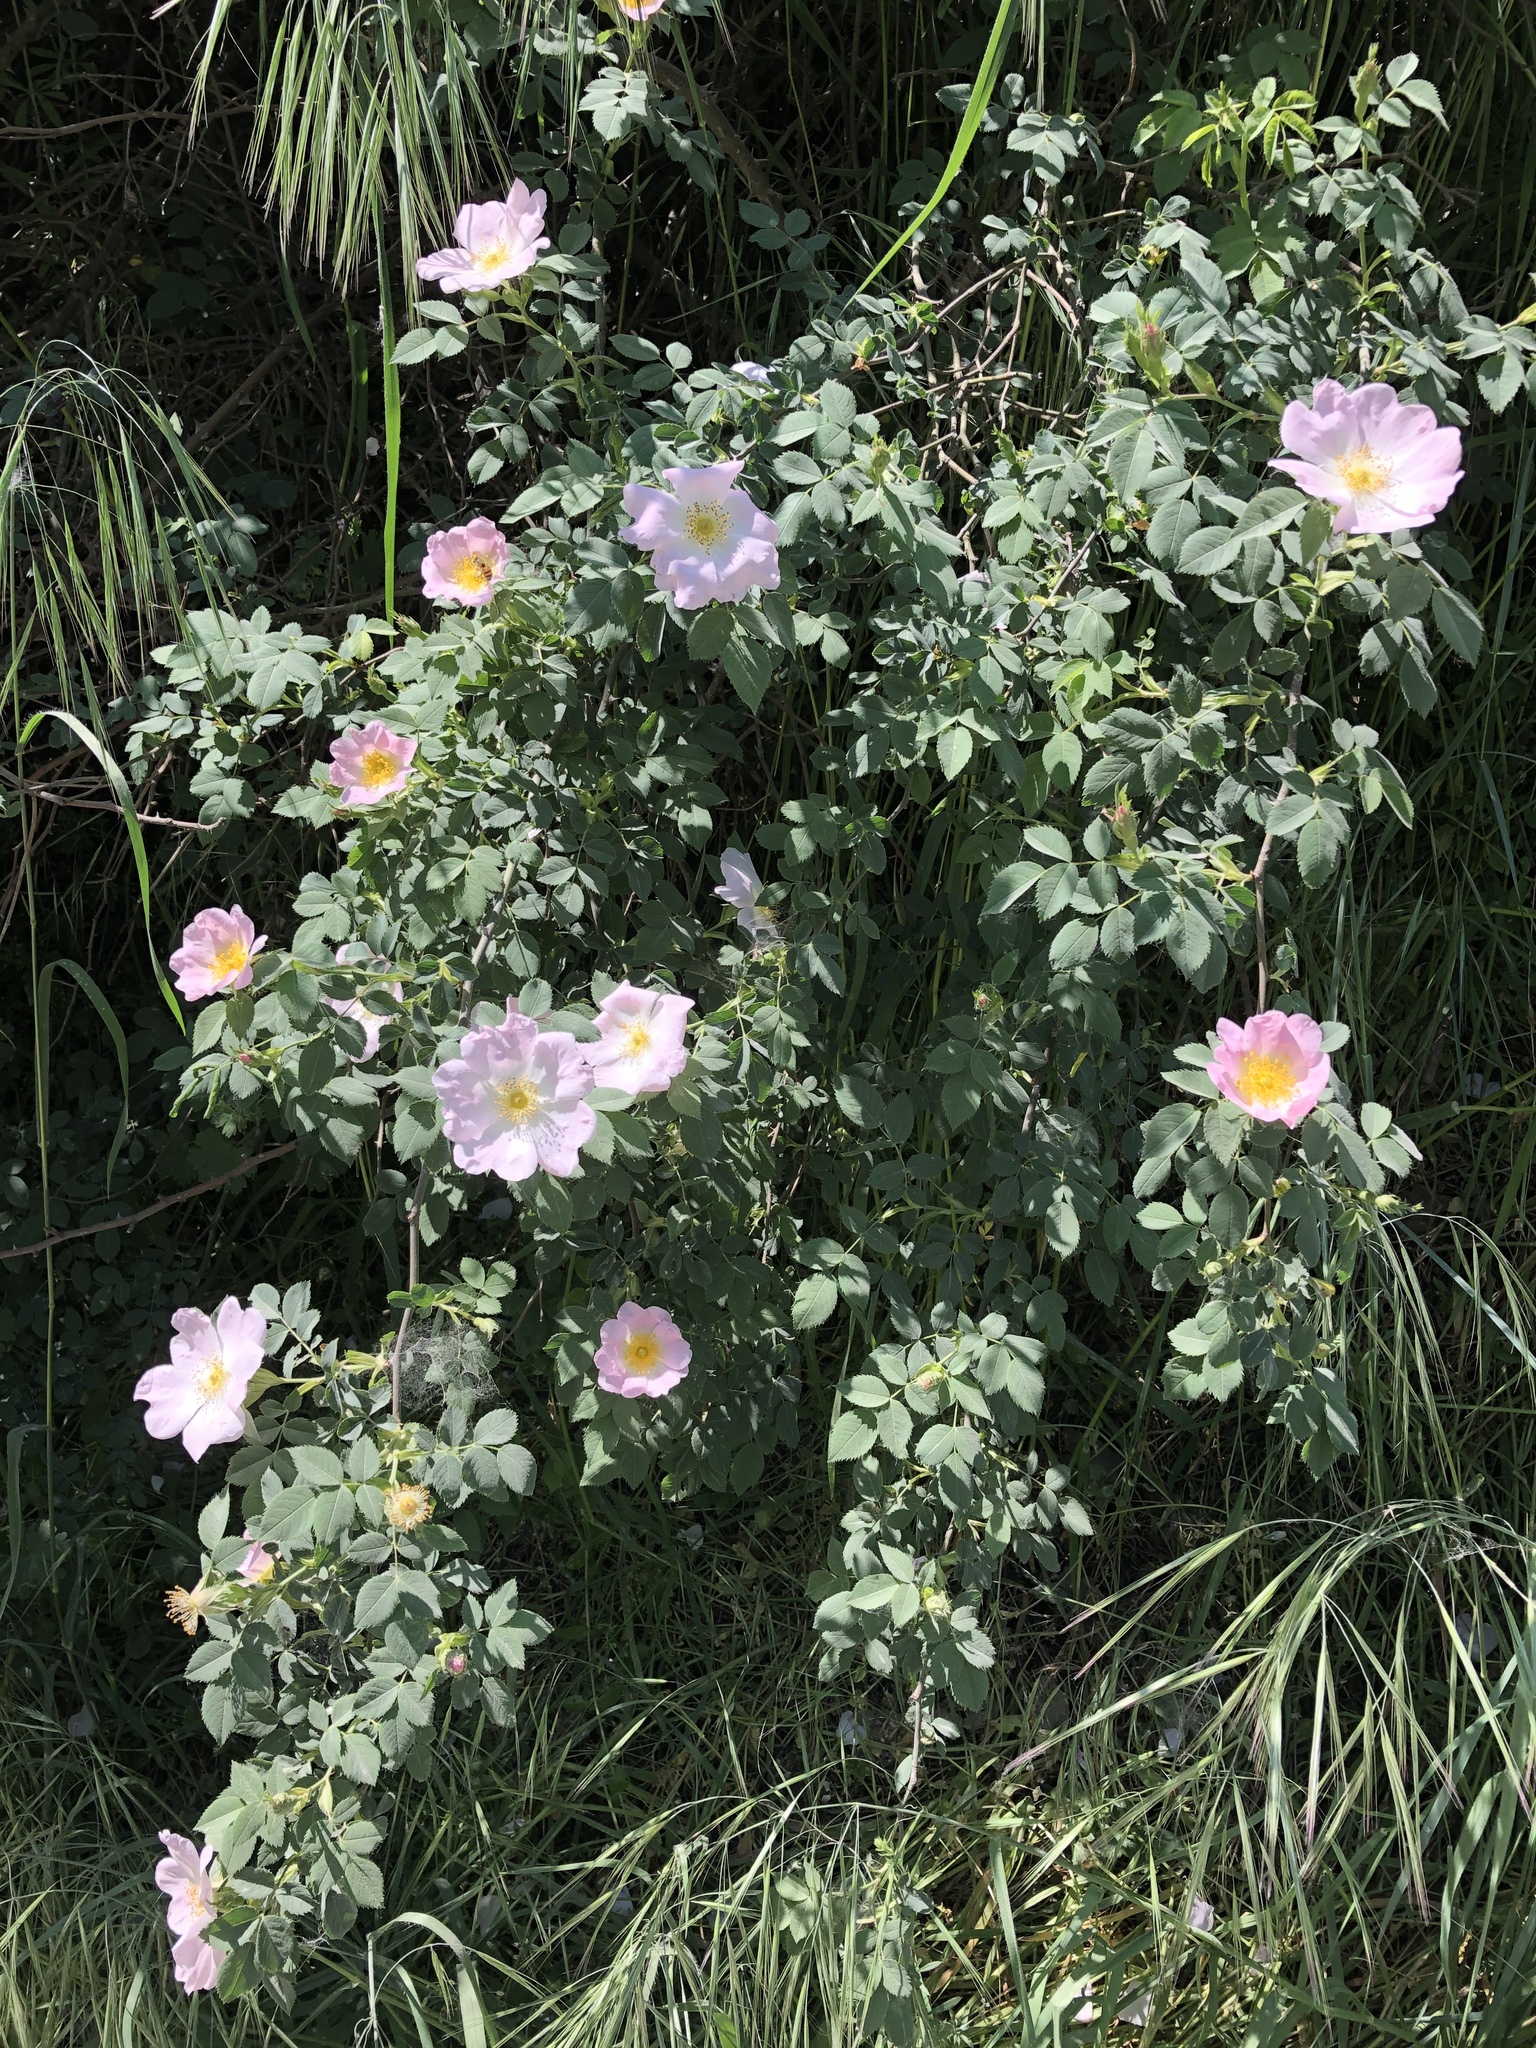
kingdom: Plantae
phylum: Tracheophyta
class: Magnoliopsida
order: Rosales
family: Rosaceae
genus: Rosa
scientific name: Rosa canina
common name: Dog rose
